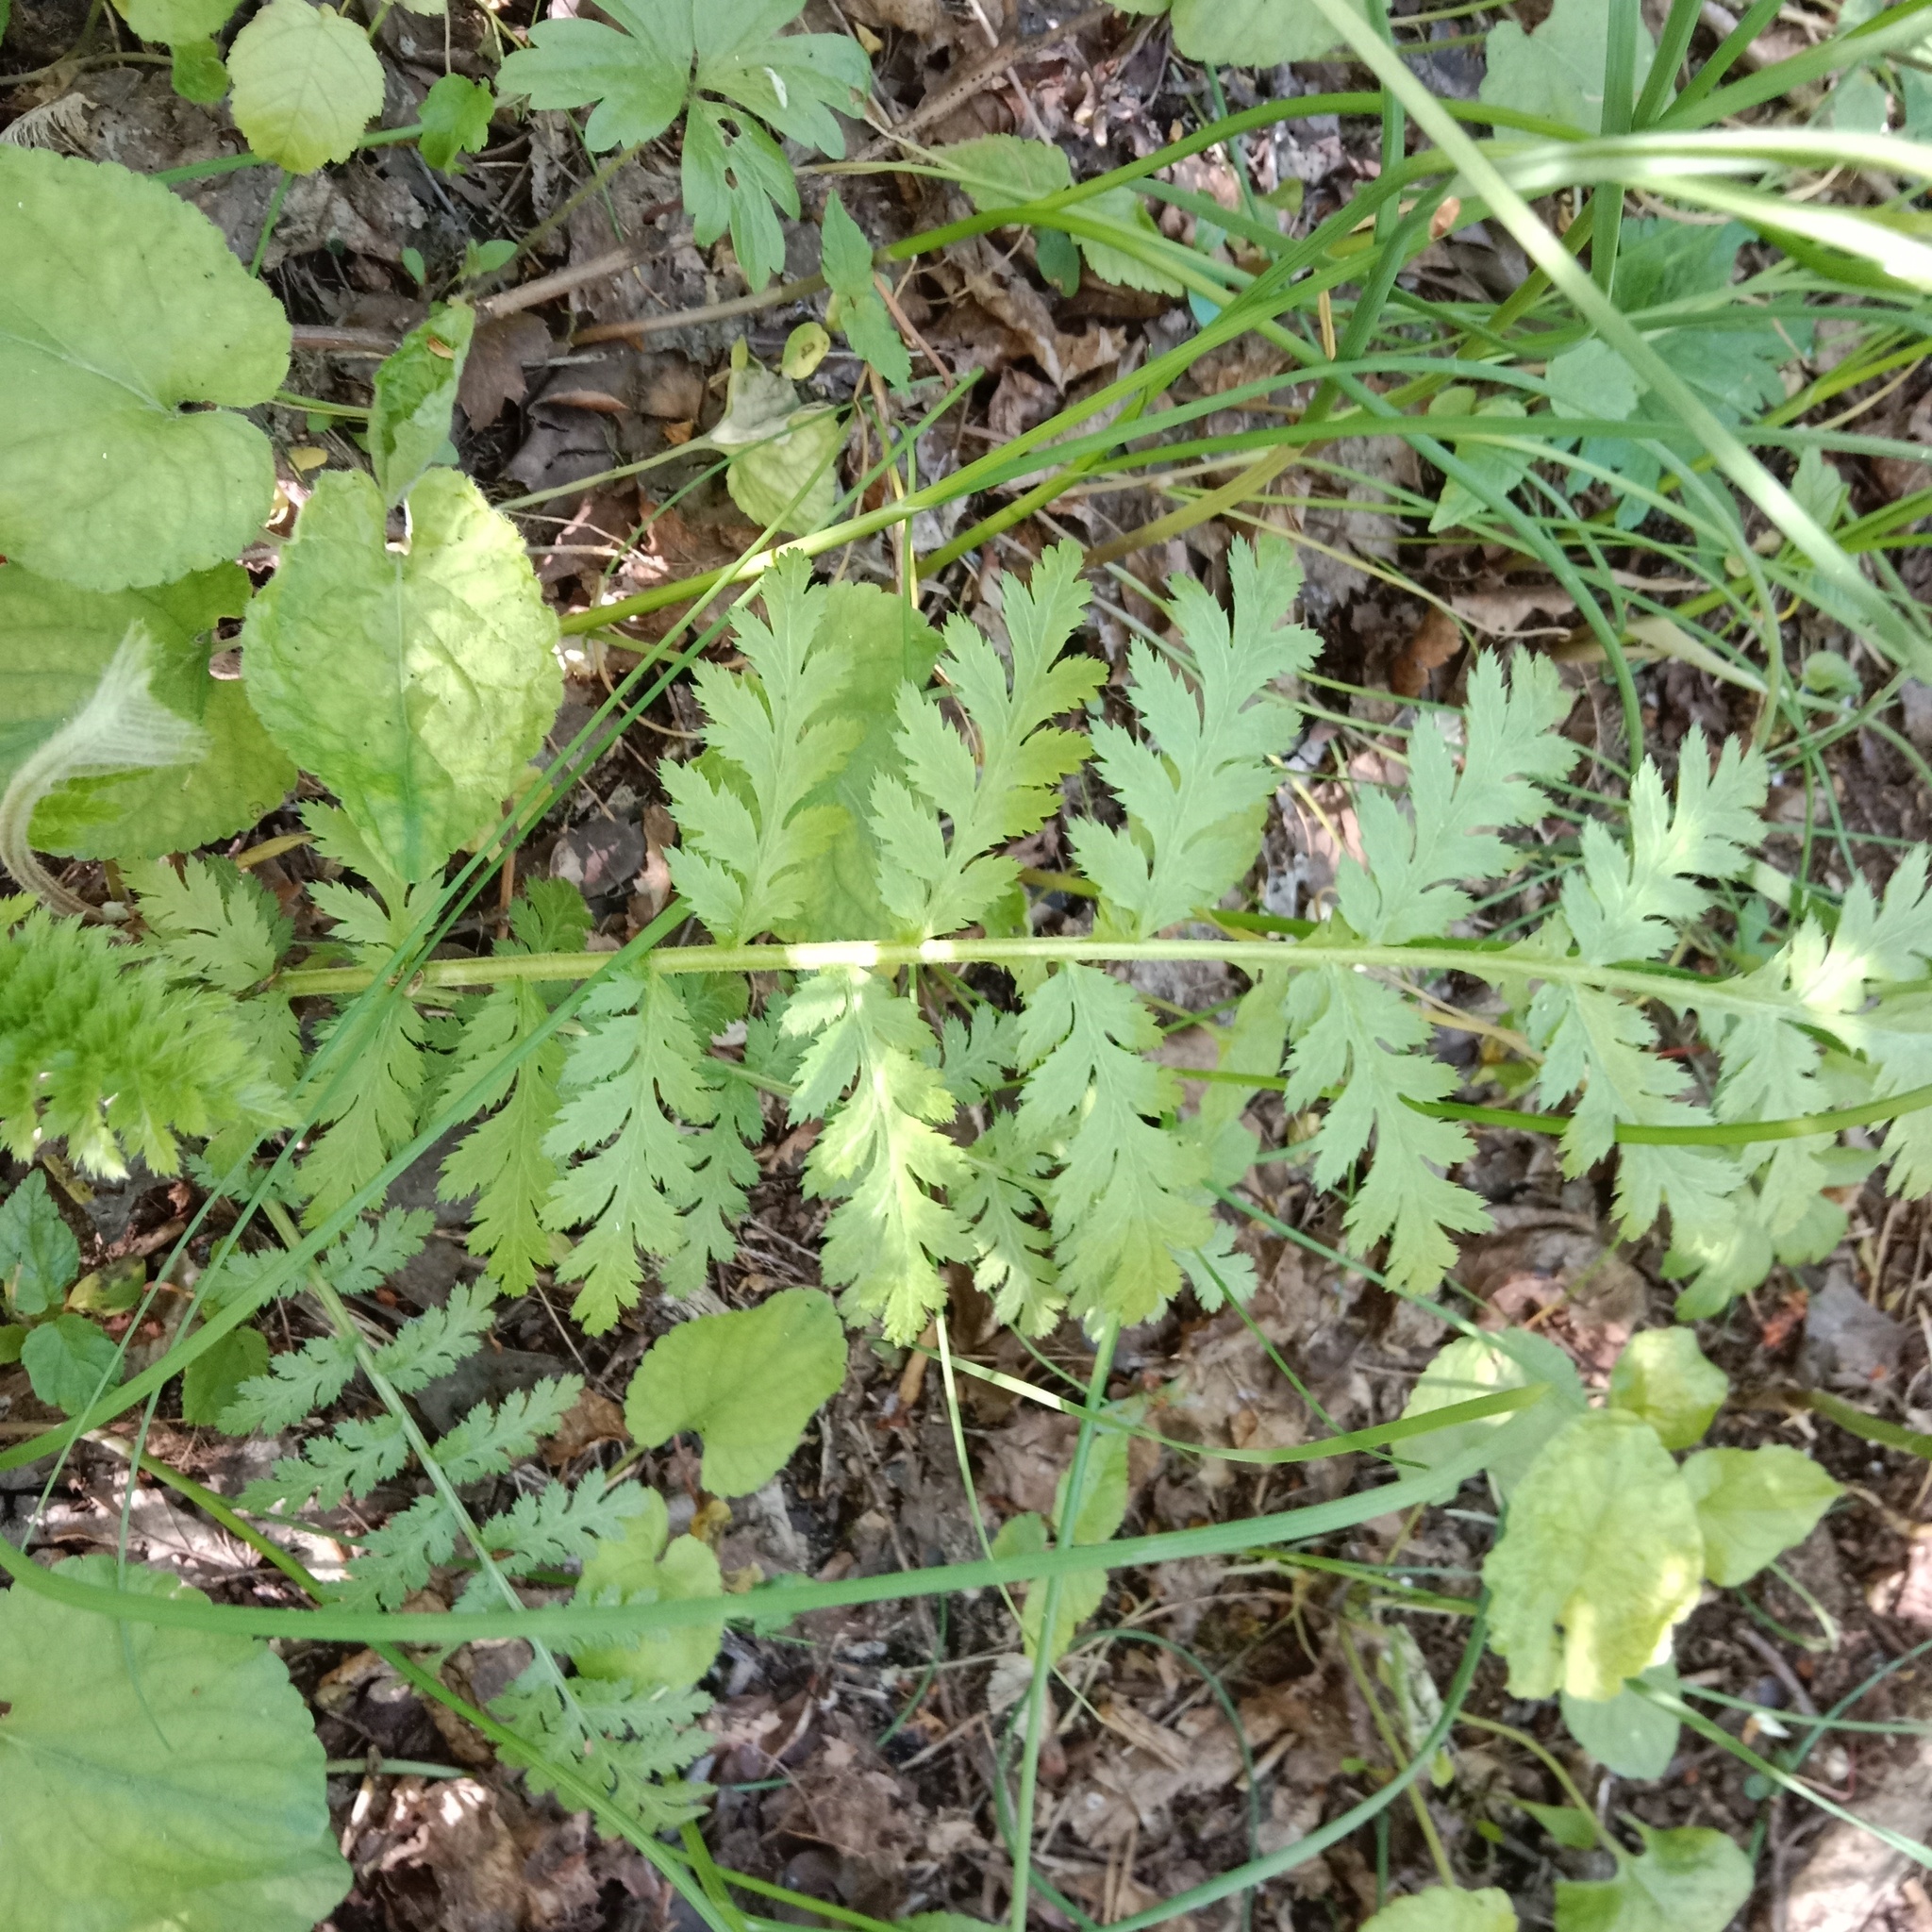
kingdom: Plantae
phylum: Tracheophyta
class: Magnoliopsida
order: Asterales
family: Asteraceae
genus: Tanacetum
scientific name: Tanacetum corymbosum
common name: Scentless feverfew
